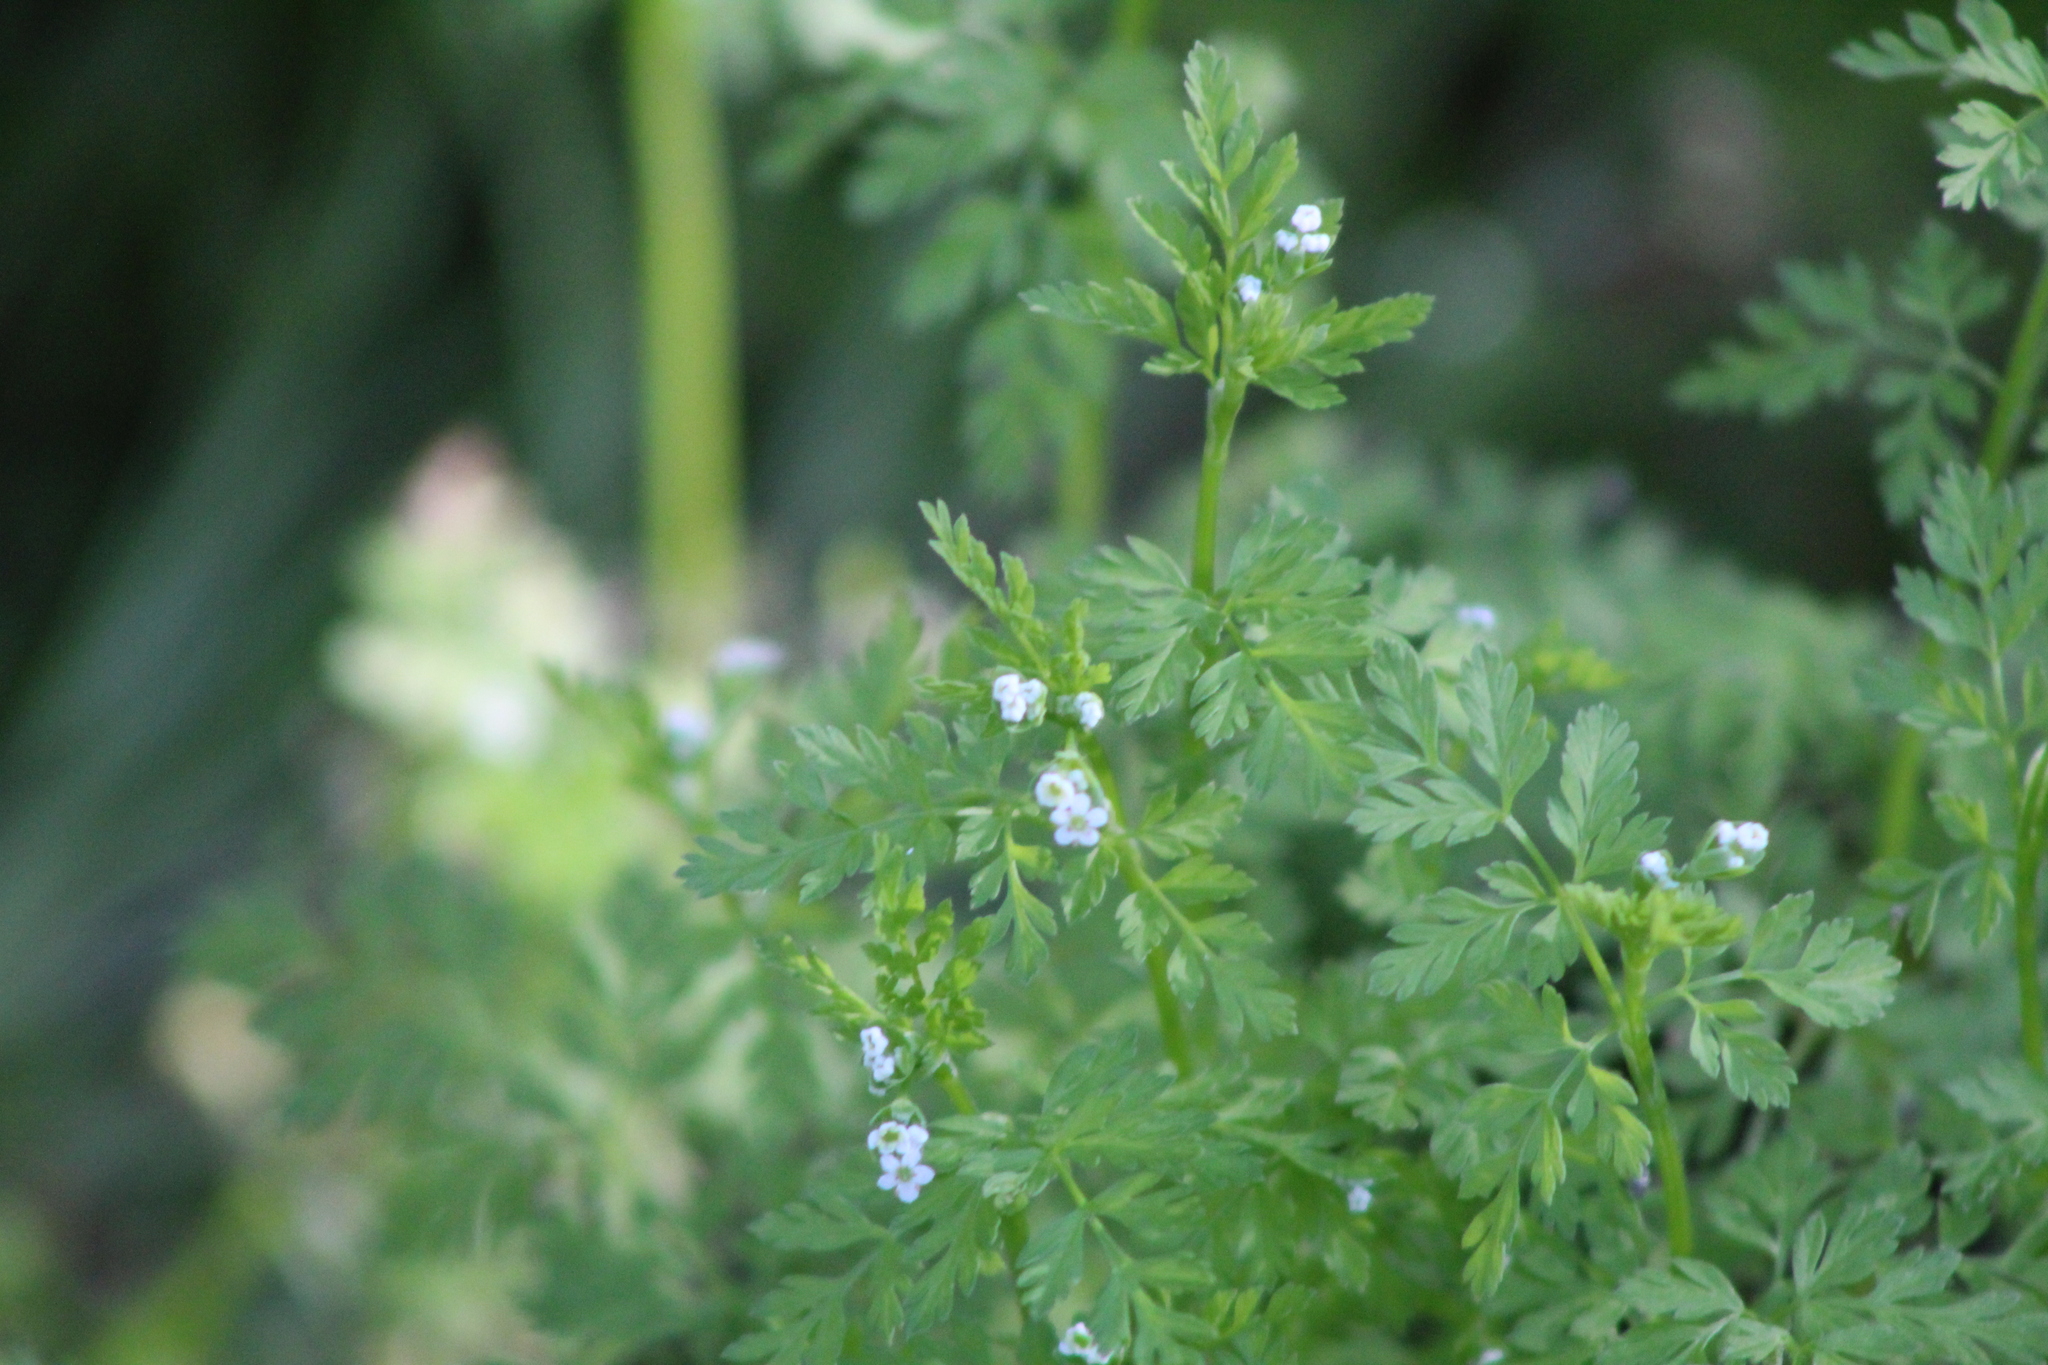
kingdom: Plantae
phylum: Tracheophyta
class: Magnoliopsida
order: Apiales
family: Apiaceae
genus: Chaerophyllum
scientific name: Chaerophyllum tainturieri
